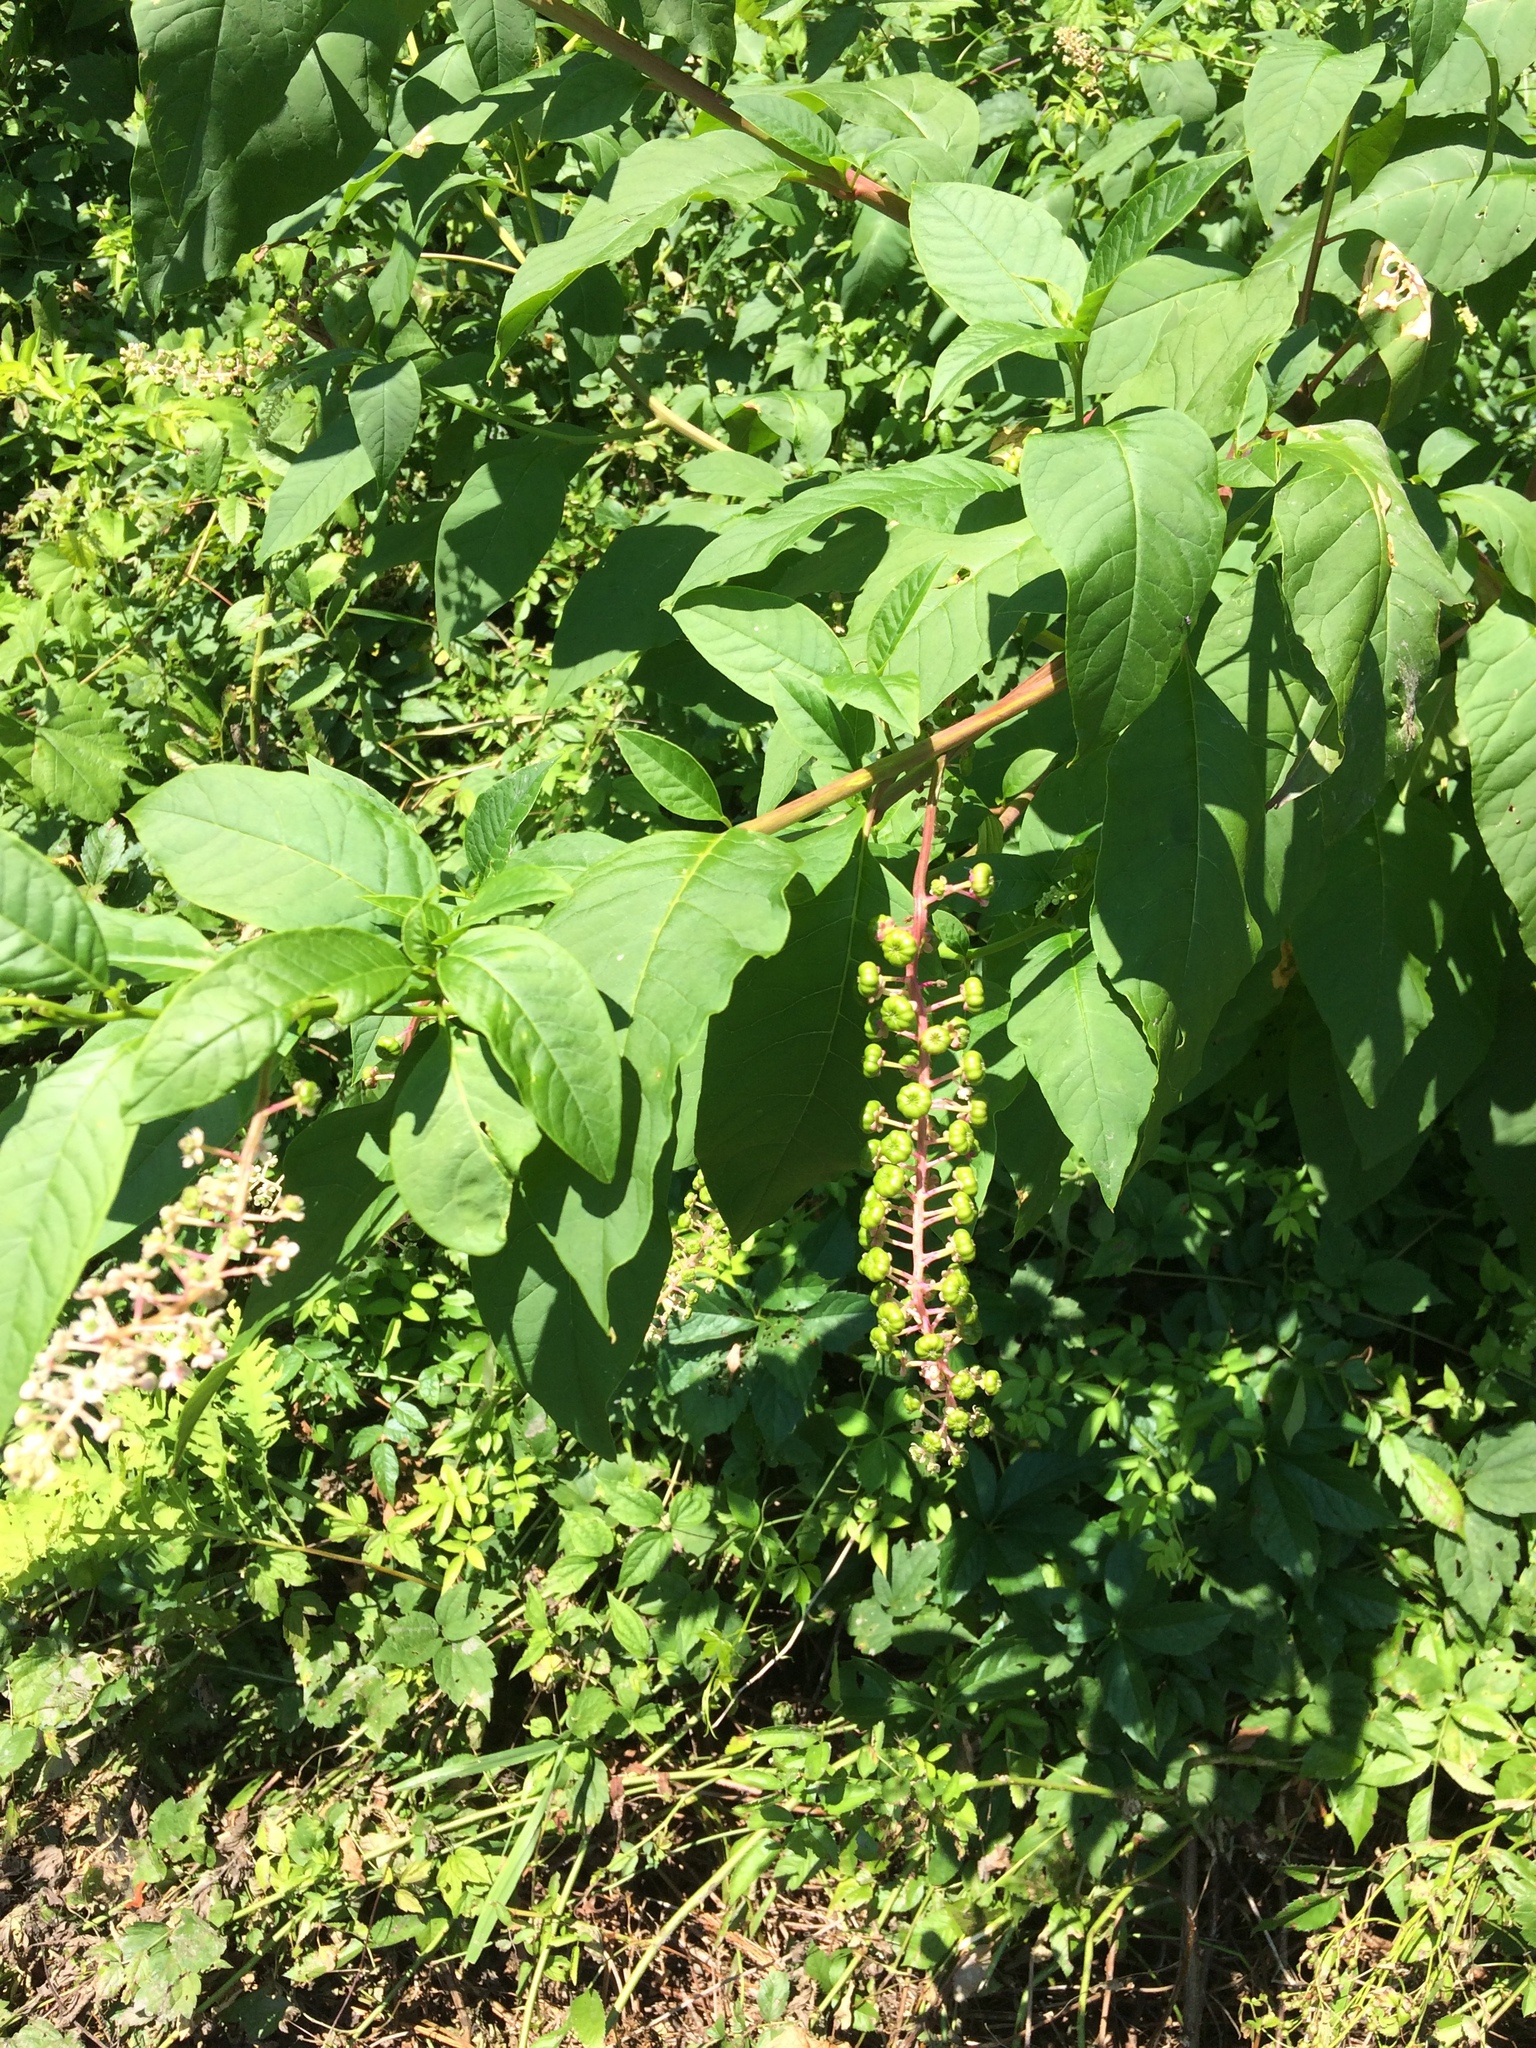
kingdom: Plantae
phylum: Tracheophyta
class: Magnoliopsida
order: Caryophyllales
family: Phytolaccaceae
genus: Phytolacca
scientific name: Phytolacca americana
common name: American pokeweed
